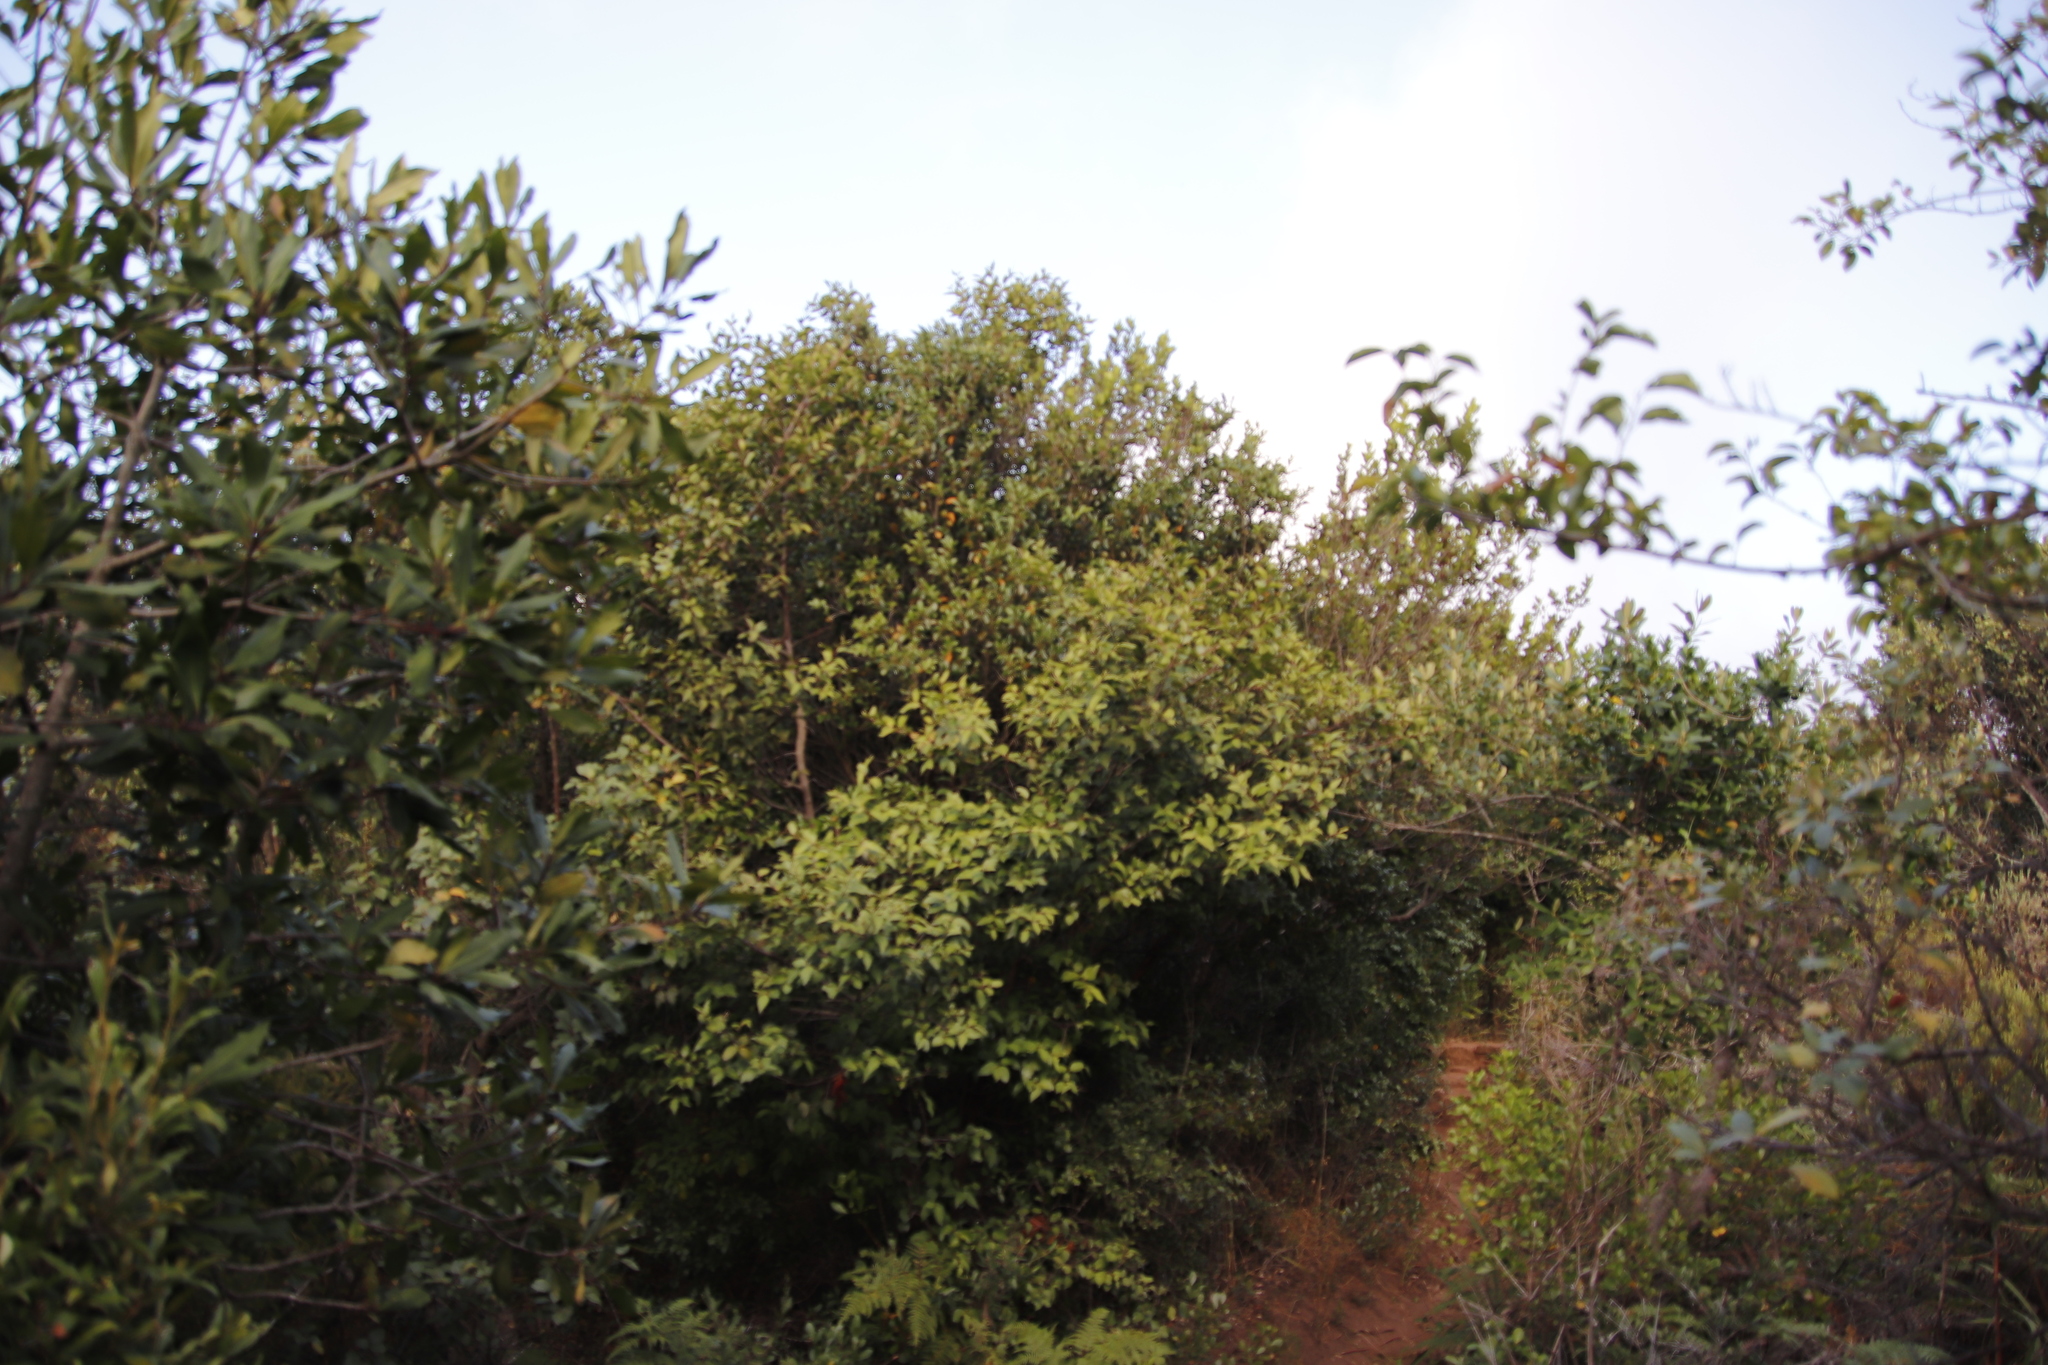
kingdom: Plantae
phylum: Tracheophyta
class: Magnoliopsida
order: Celastrales
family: Celastraceae
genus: Gymnosporia
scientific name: Gymnosporia acuminata
